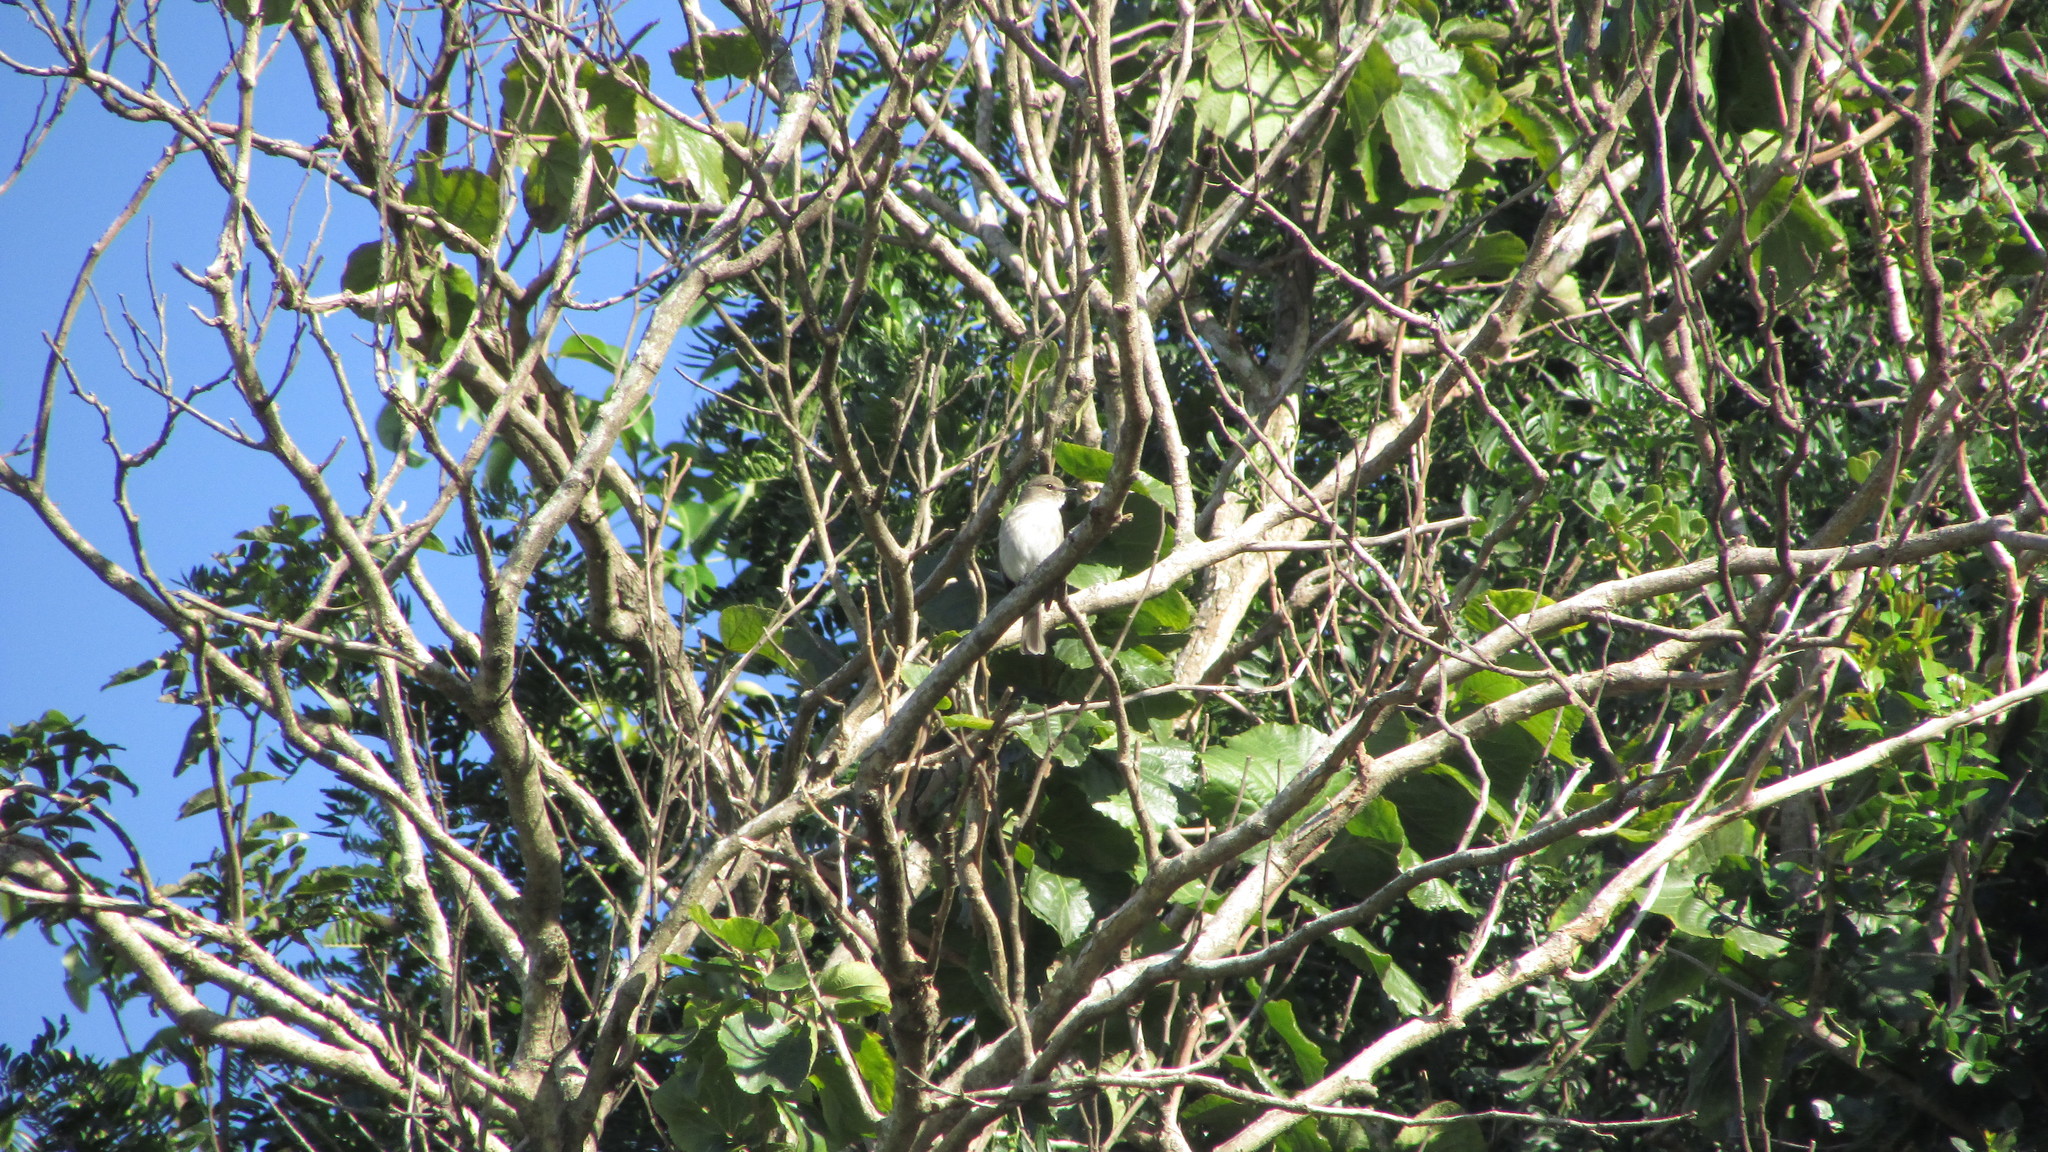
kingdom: Animalia
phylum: Chordata
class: Aves
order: Passeriformes
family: Muscicapidae
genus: Bradornis
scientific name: Bradornis pallidus
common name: Pale flycatcher
